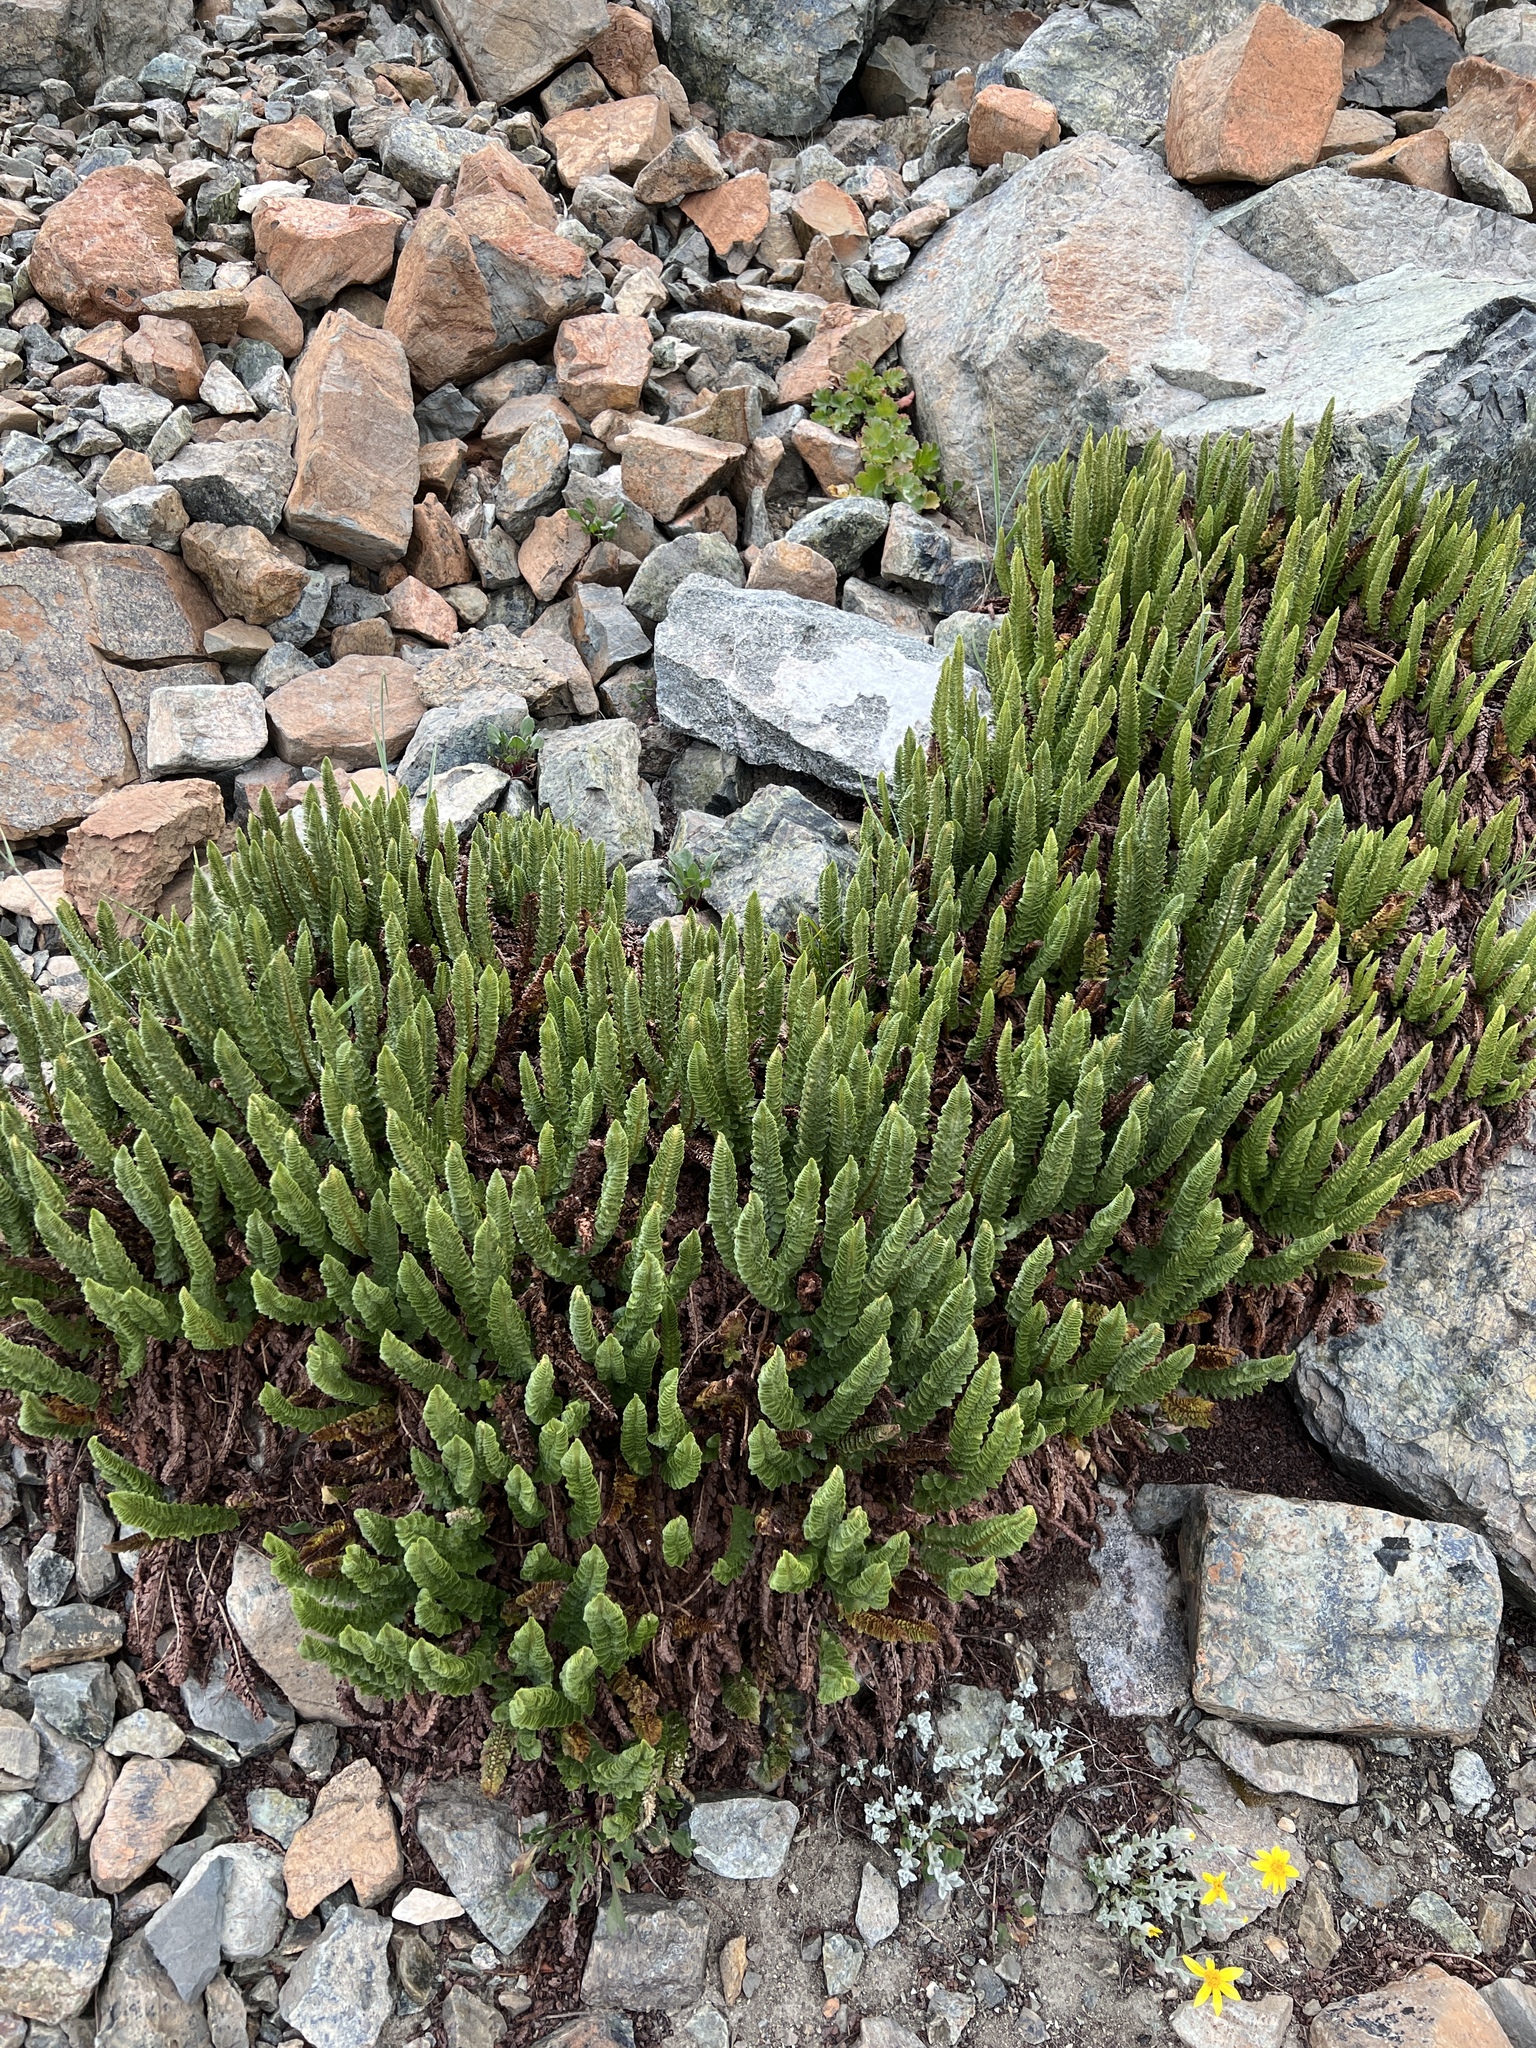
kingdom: Plantae
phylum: Tracheophyta
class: Polypodiopsida
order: Polypodiales
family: Dryopteridaceae
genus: Polystichum
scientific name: Polystichum lemmonii
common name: Lemmon's holly fern
